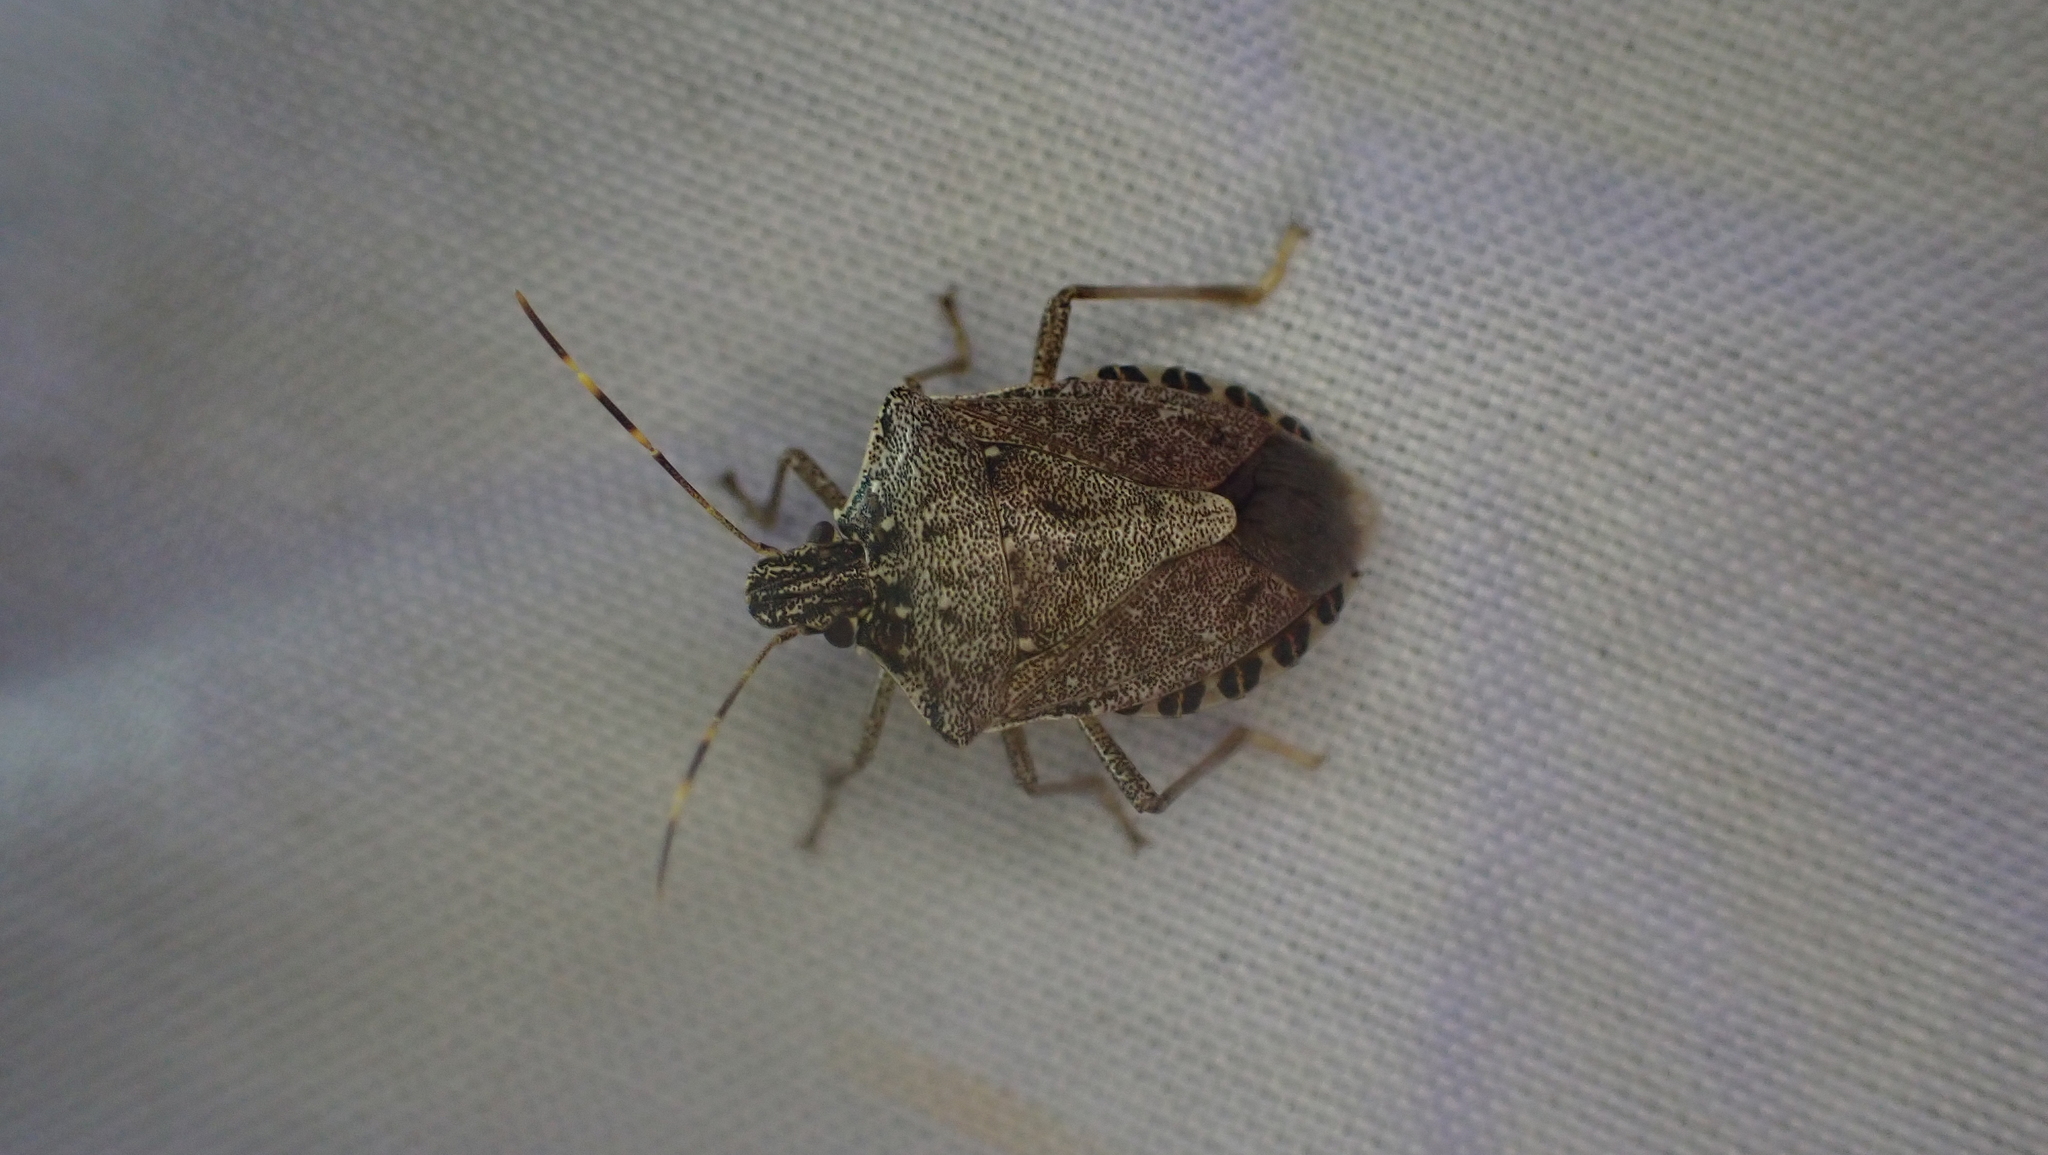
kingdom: Animalia
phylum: Arthropoda
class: Insecta
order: Hemiptera
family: Pentatomidae
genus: Halyomorpha
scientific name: Halyomorpha halys
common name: Brown marmorated stink bug
